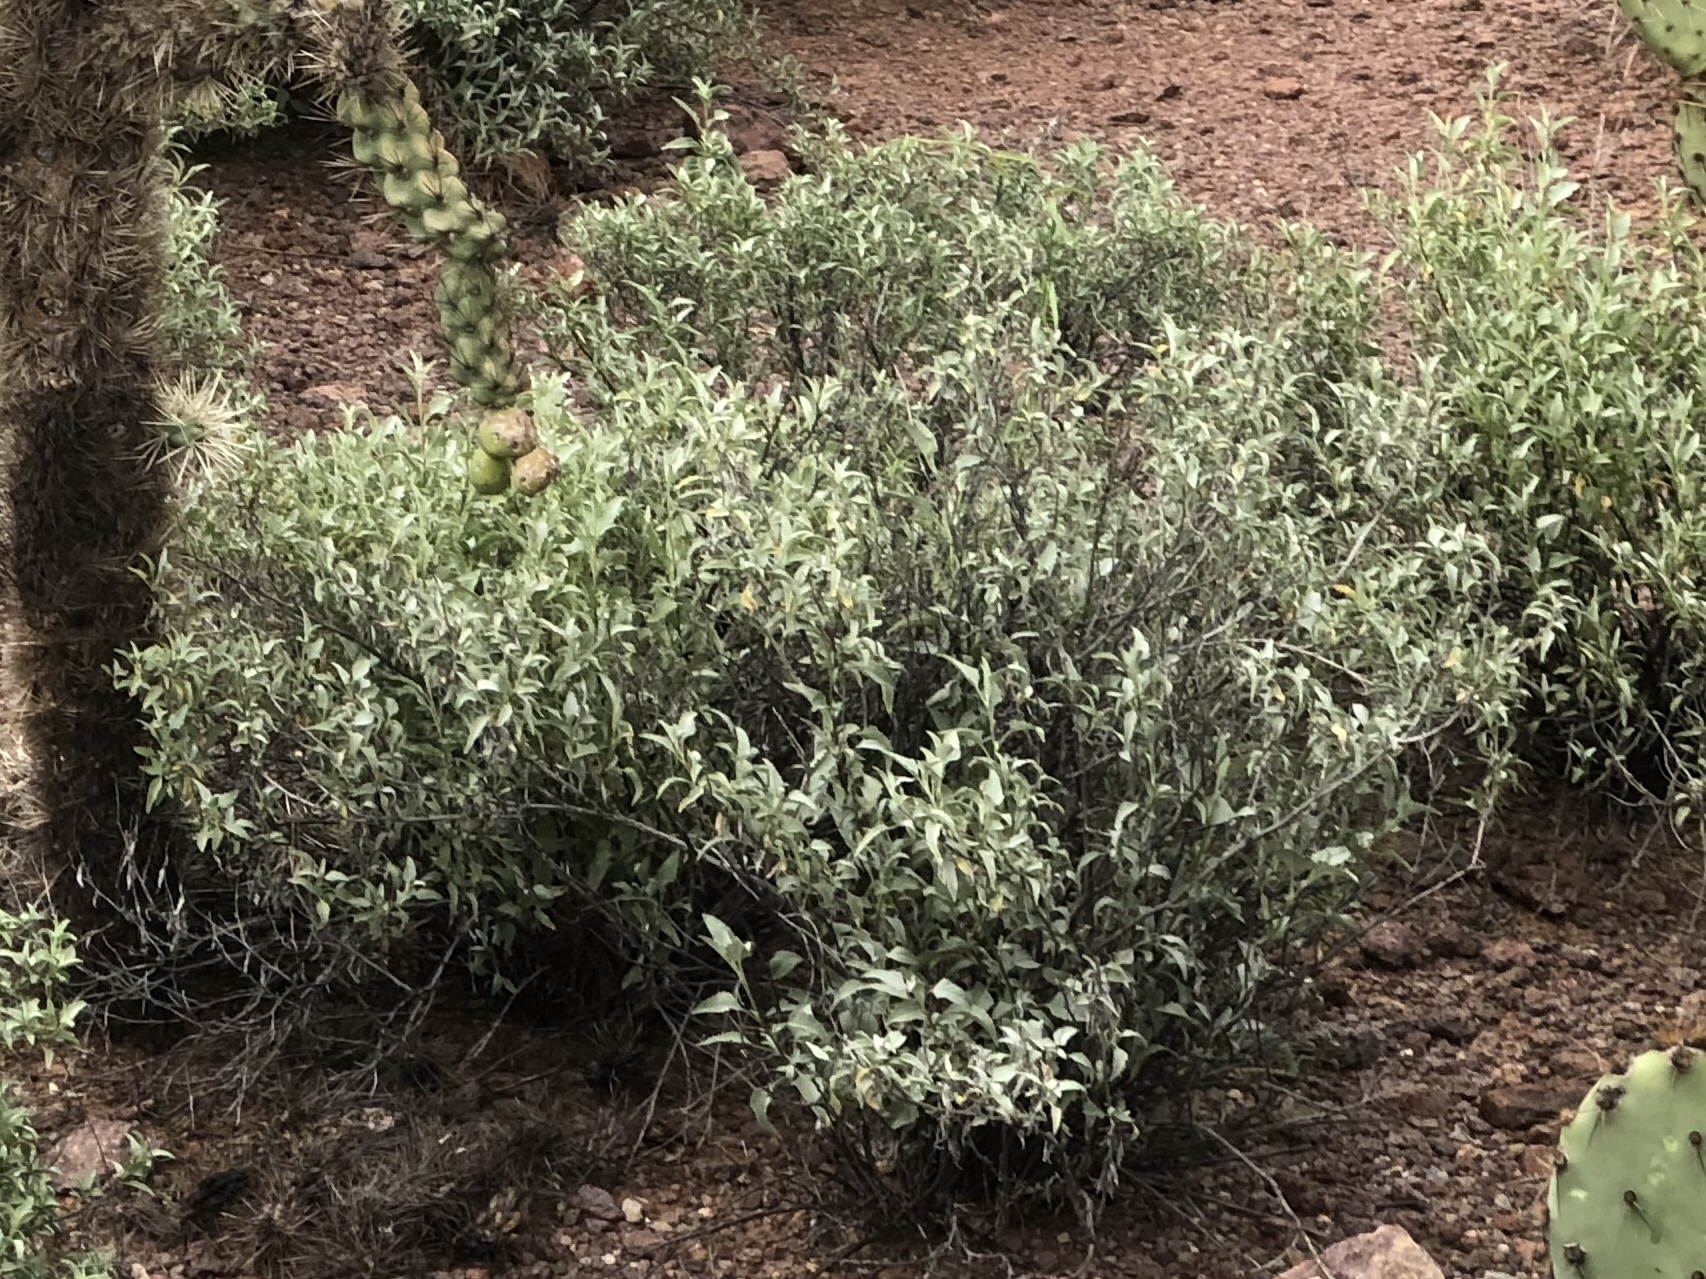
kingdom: Plantae
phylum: Tracheophyta
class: Magnoliopsida
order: Asterales
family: Asteraceae
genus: Ambrosia
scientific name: Ambrosia deltoidea
